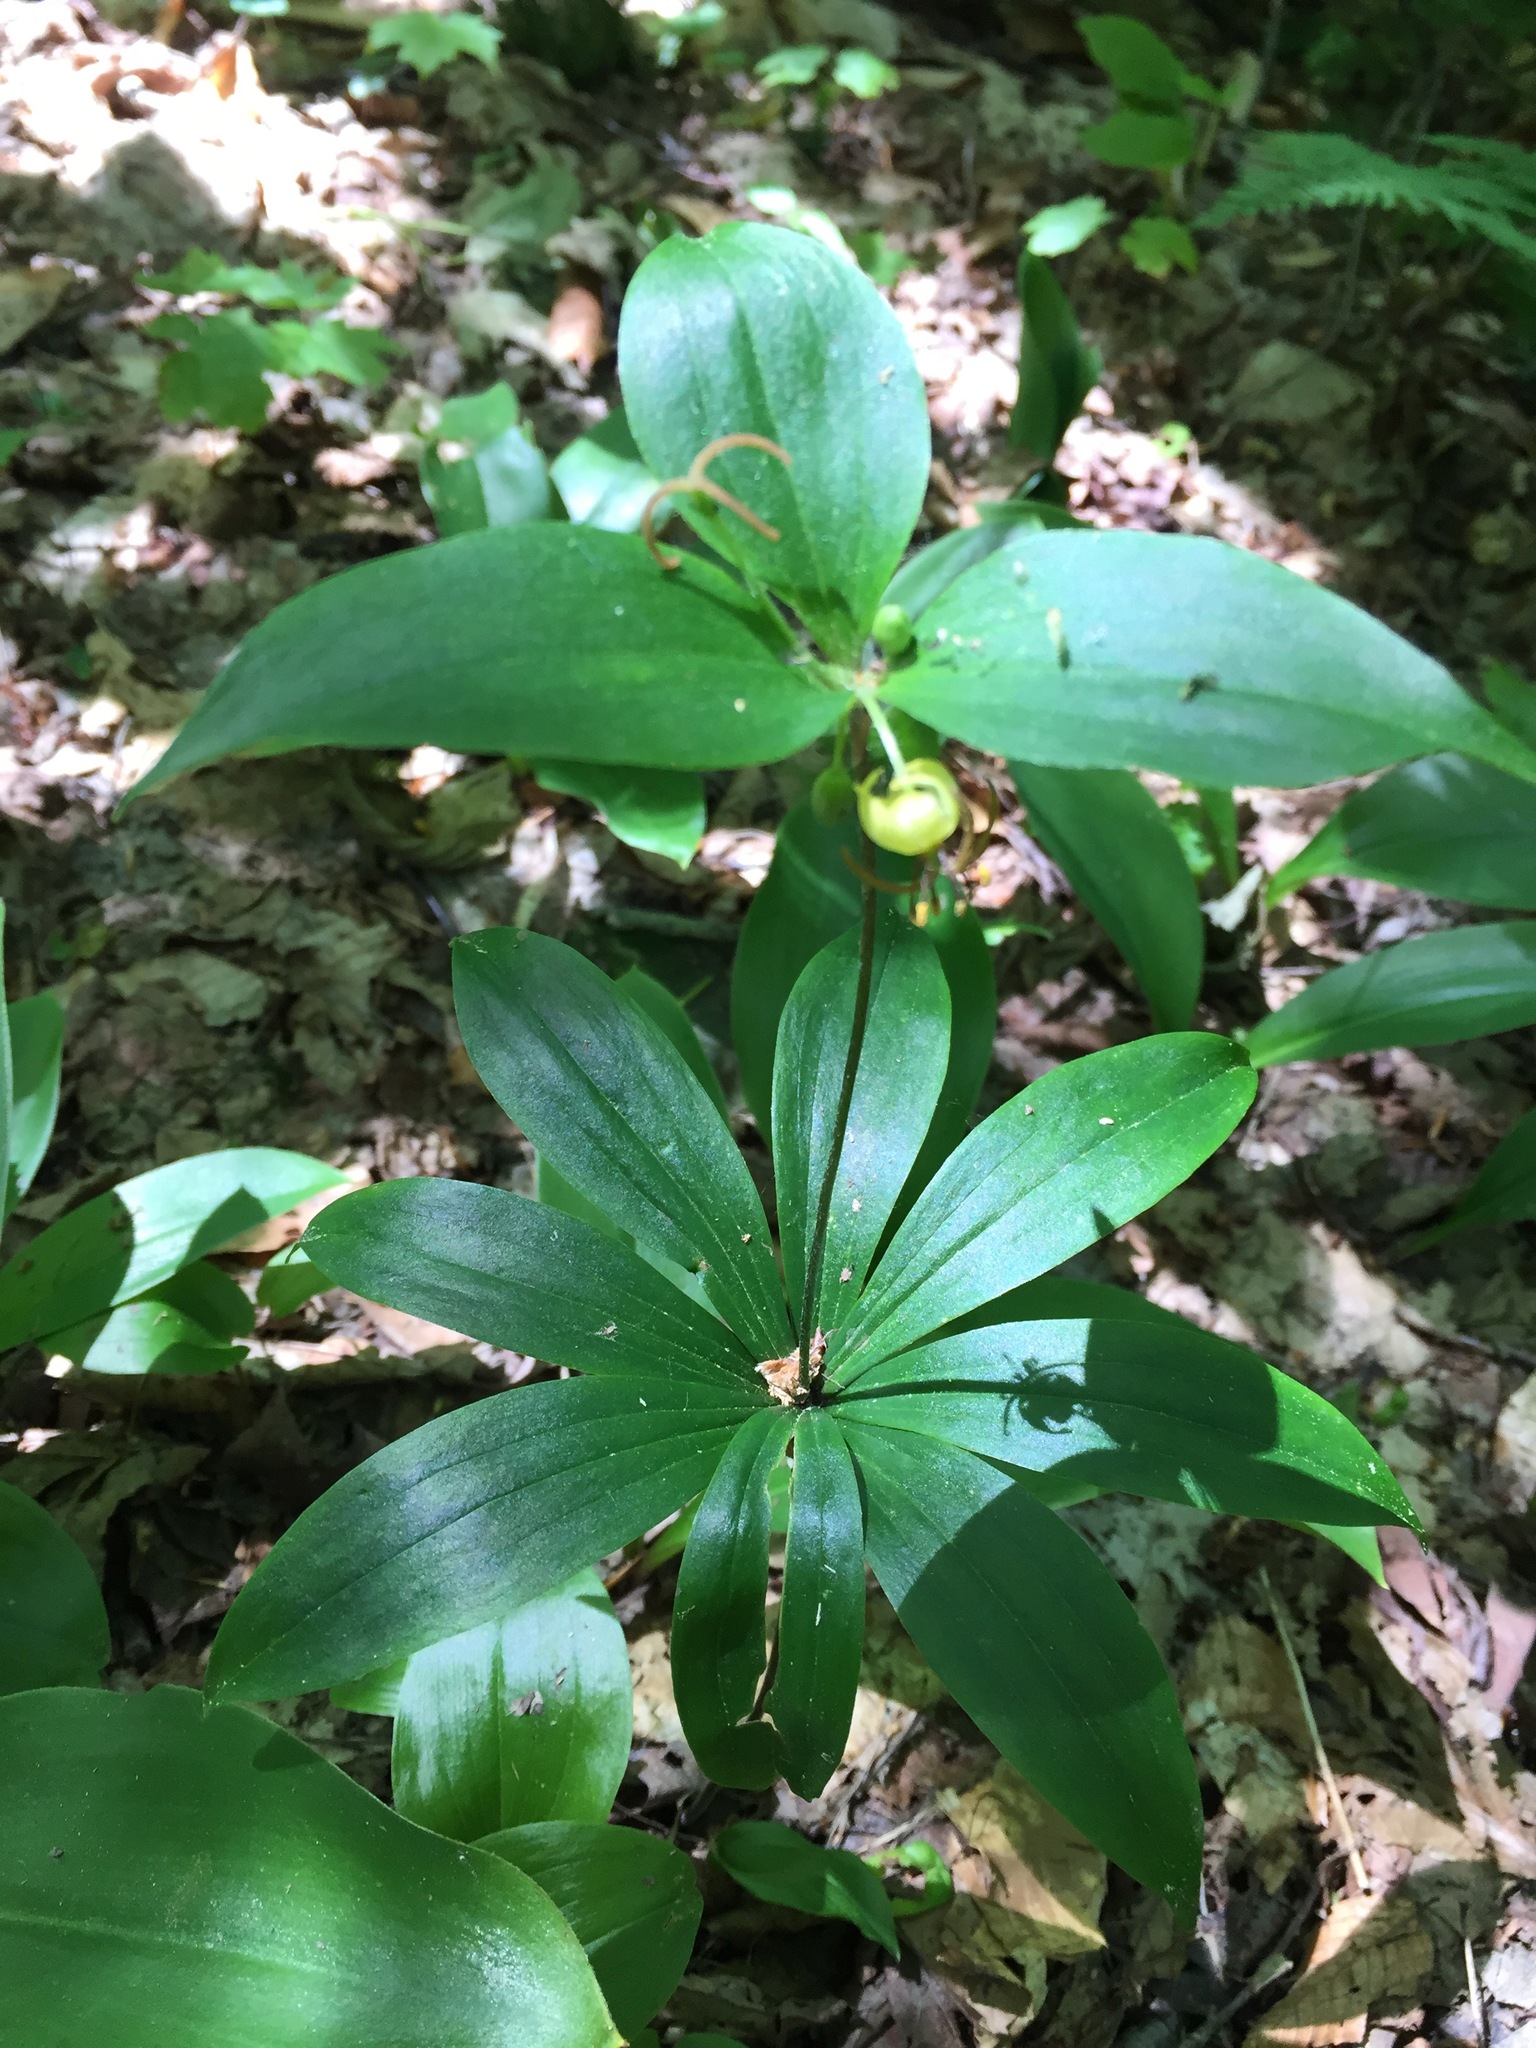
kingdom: Plantae
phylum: Tracheophyta
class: Liliopsida
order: Liliales
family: Liliaceae
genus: Medeola
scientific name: Medeola virginiana
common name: Indian cucumber-root
